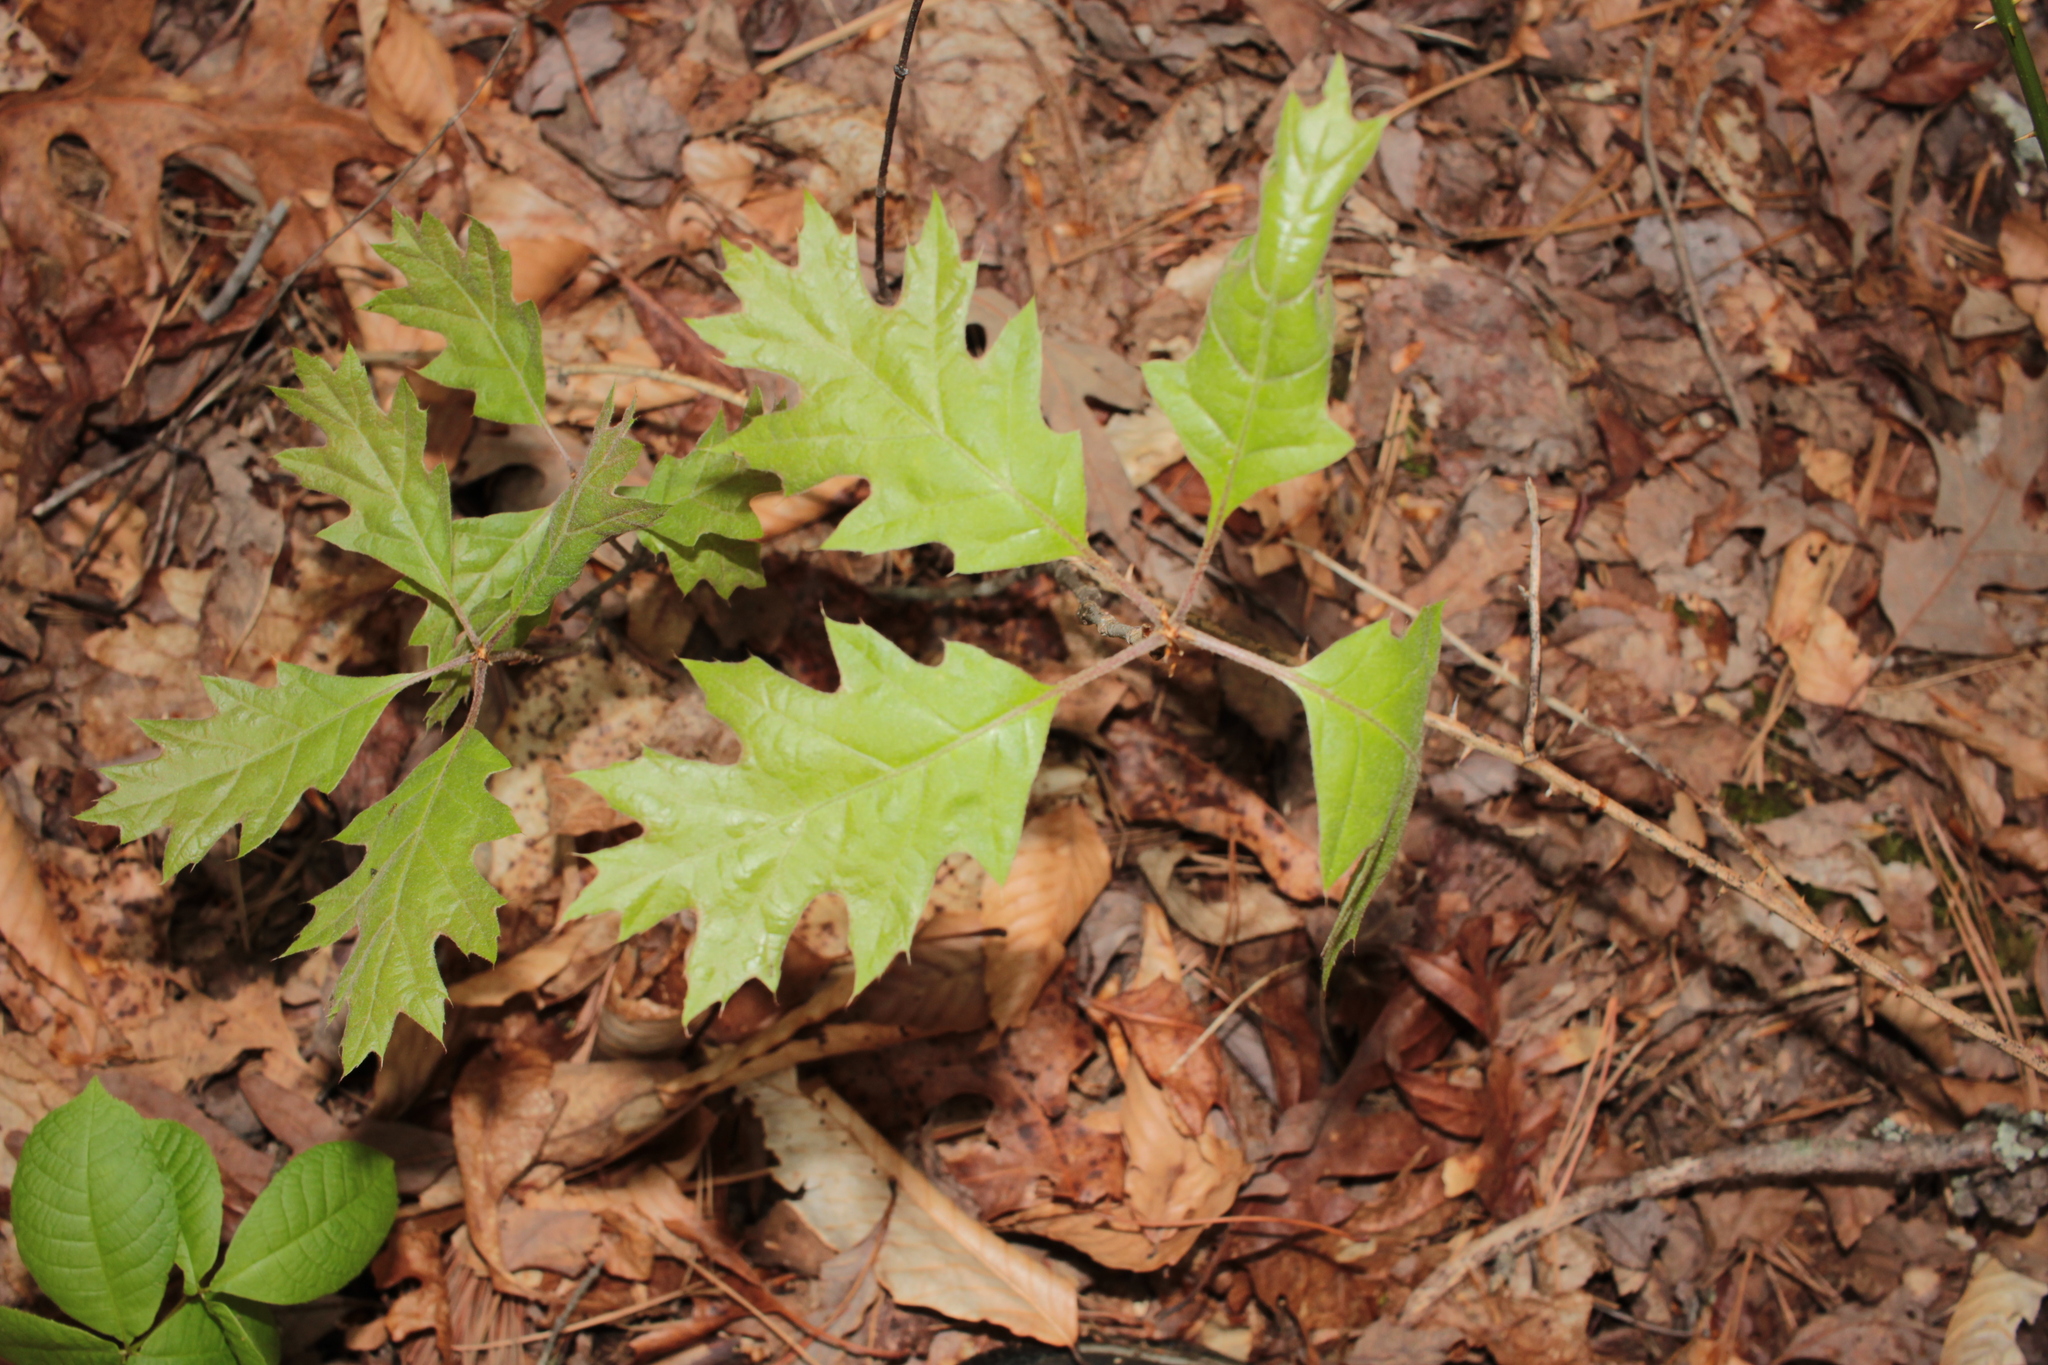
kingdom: Plantae
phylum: Tracheophyta
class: Magnoliopsida
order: Fagales
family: Fagaceae
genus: Quercus
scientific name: Quercus rubra
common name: Red oak
